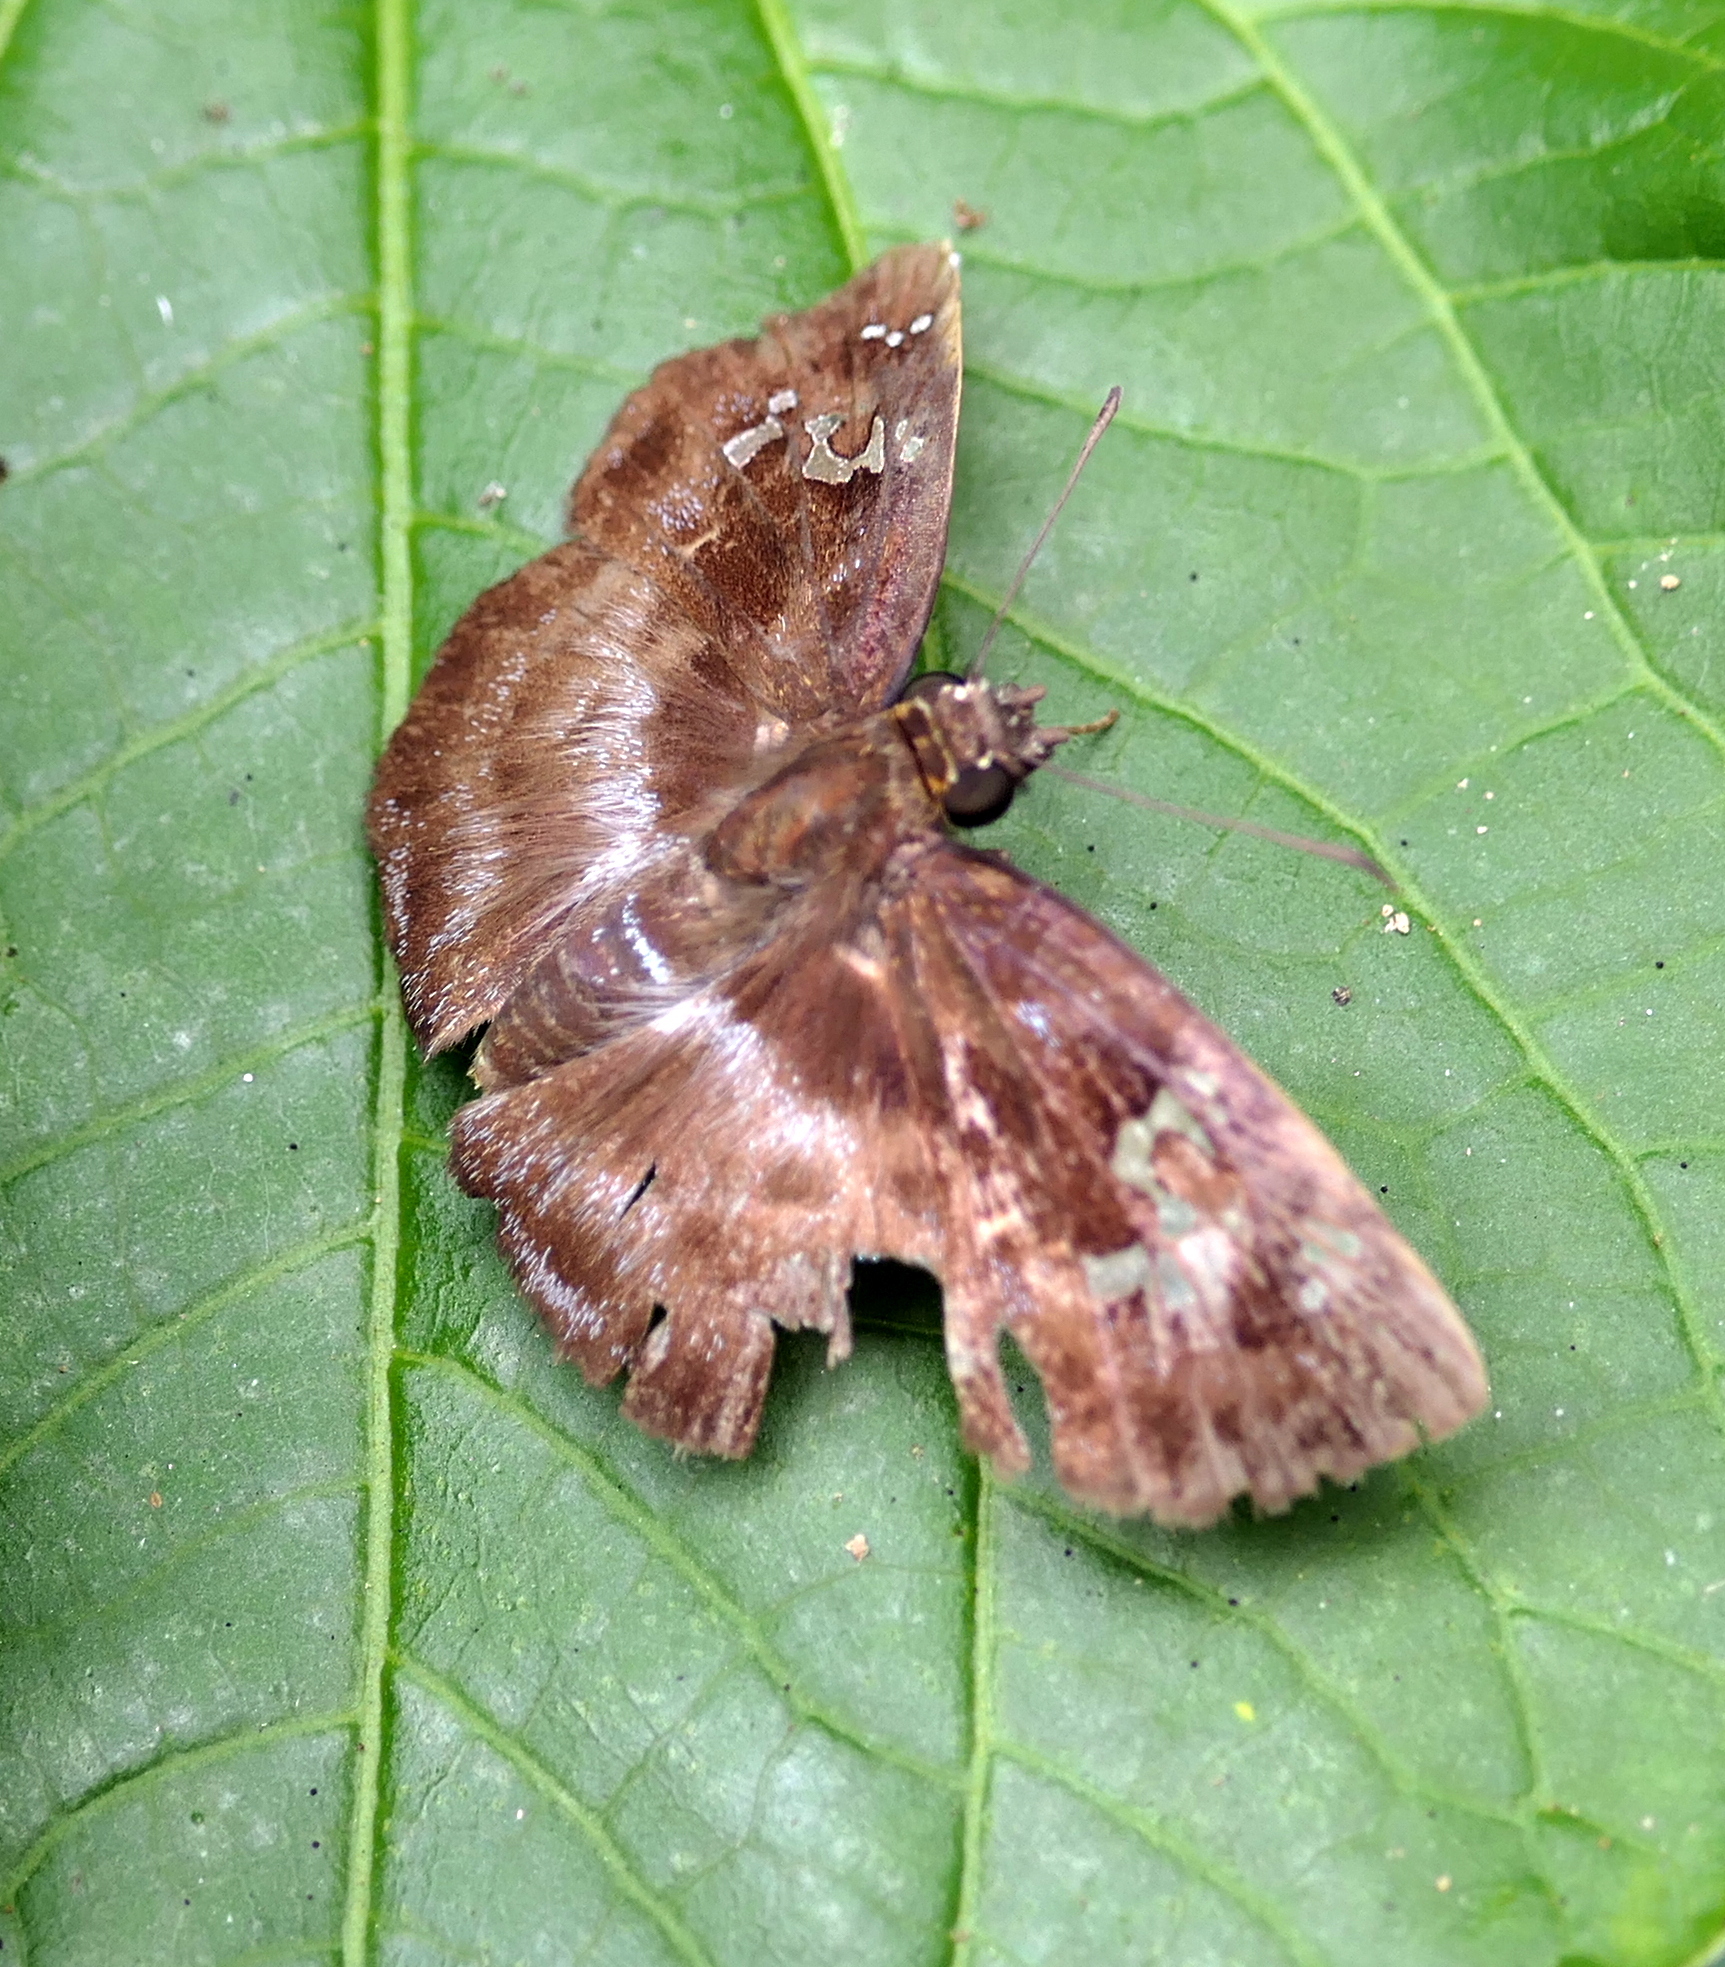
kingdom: Animalia
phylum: Arthropoda
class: Insecta
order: Lepidoptera
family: Hesperiidae
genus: Quadrus
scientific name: Quadrus cerialis
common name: Common blue-skipper
